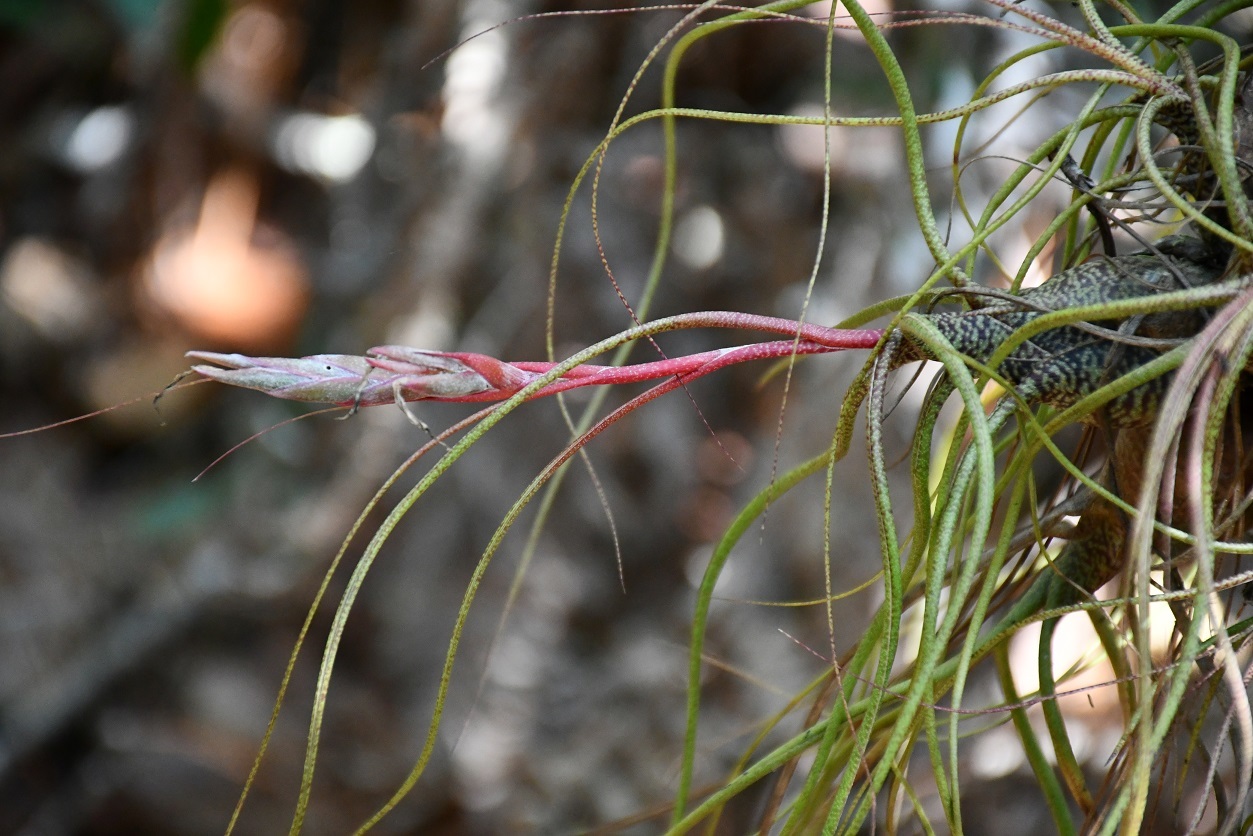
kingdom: Plantae
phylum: Tracheophyta
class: Liliopsida
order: Poales
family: Bromeliaceae
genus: Tillandsia
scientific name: Tillandsia butzii
